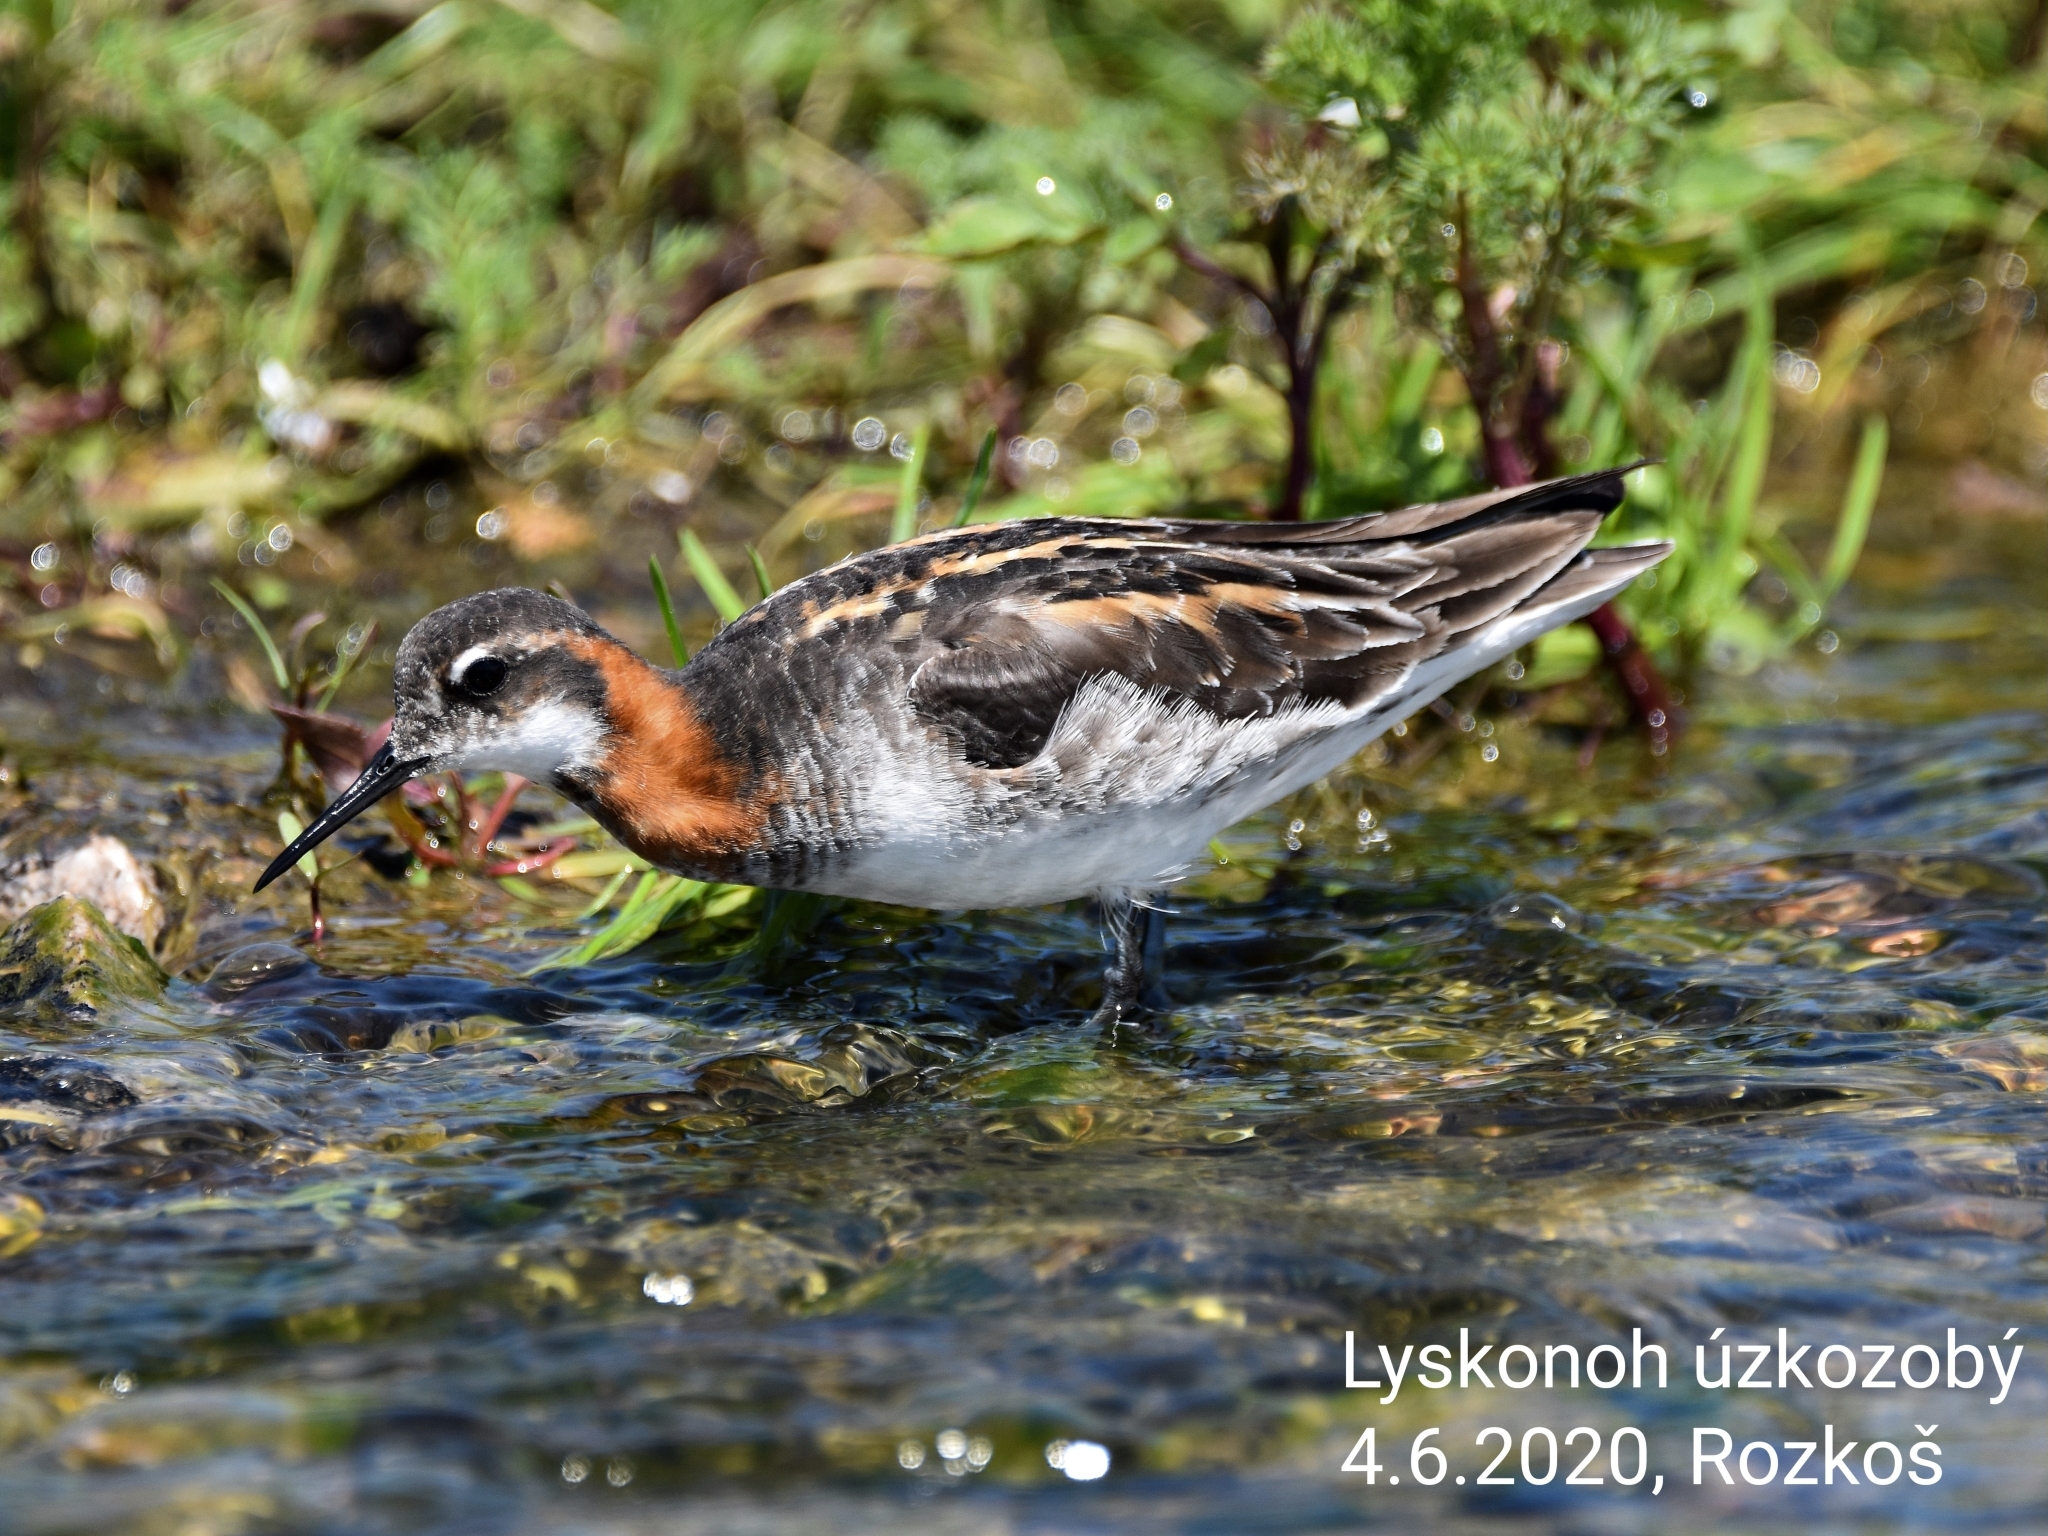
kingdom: Animalia
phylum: Chordata
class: Aves
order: Charadriiformes
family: Scolopacidae
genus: Phalaropus
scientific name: Phalaropus lobatus
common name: Red-necked phalarope
